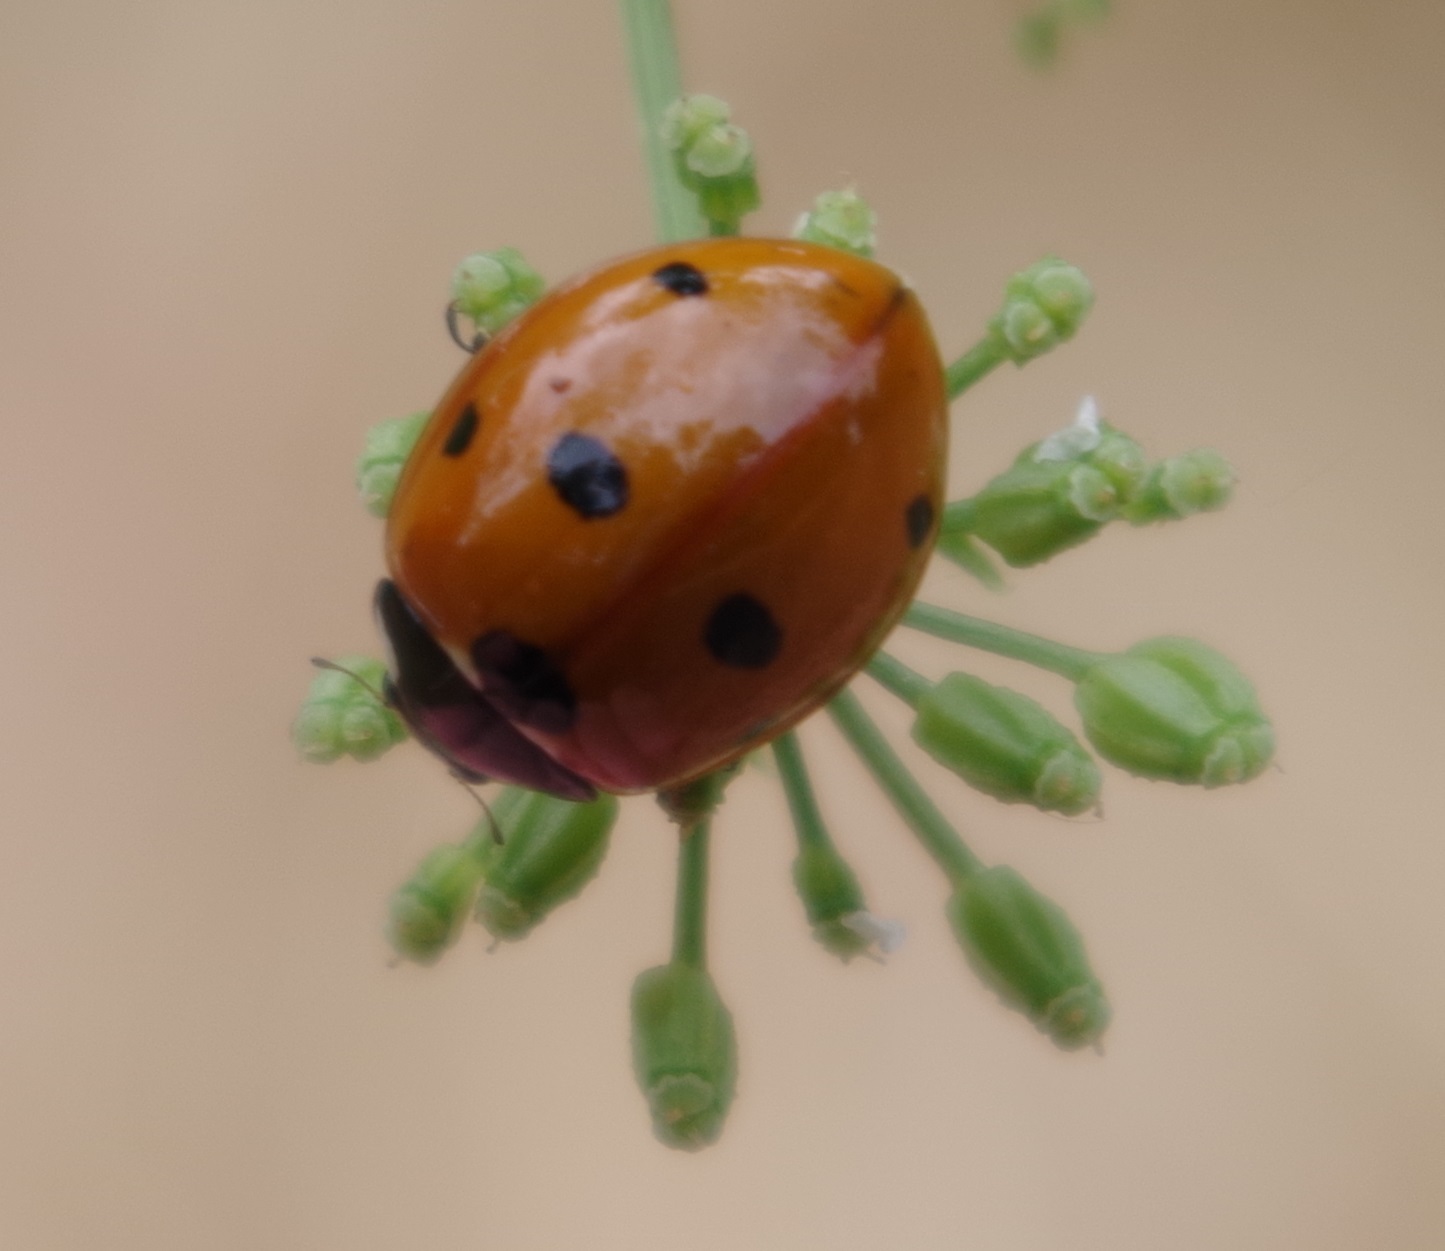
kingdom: Animalia
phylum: Arthropoda
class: Insecta
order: Coleoptera
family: Coccinellidae
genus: Coccinella
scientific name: Coccinella septempunctata
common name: Sevenspotted lady beetle
